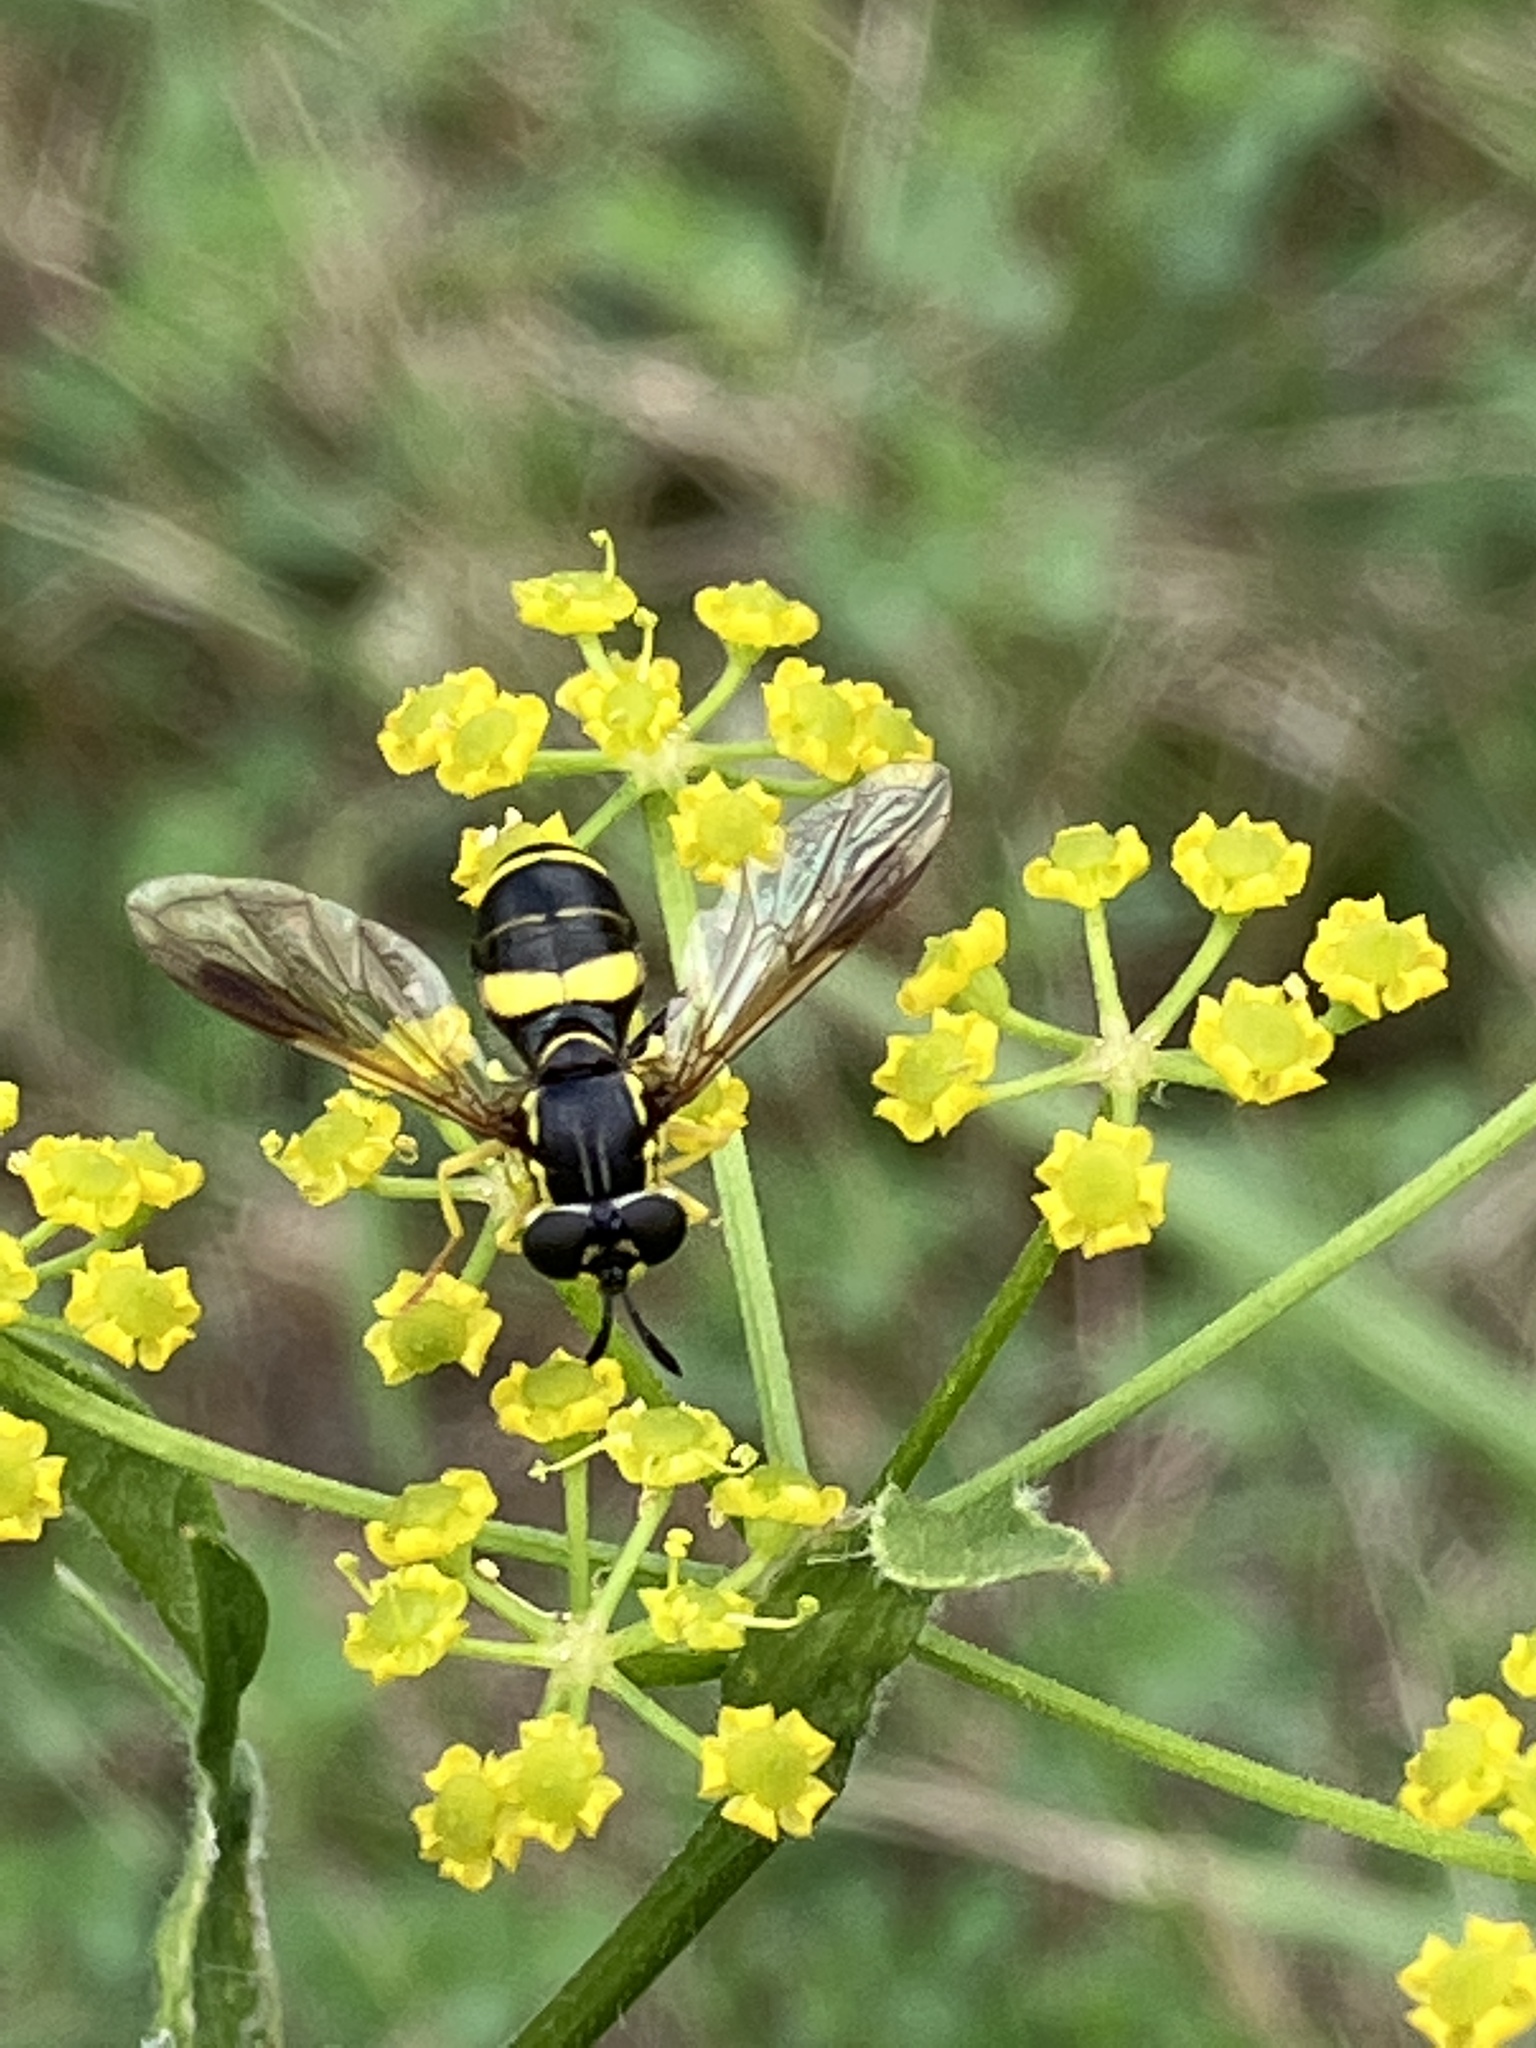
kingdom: Animalia
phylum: Arthropoda
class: Insecta
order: Diptera
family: Syrphidae
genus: Chrysotoxum
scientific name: Chrysotoxum bicincta
